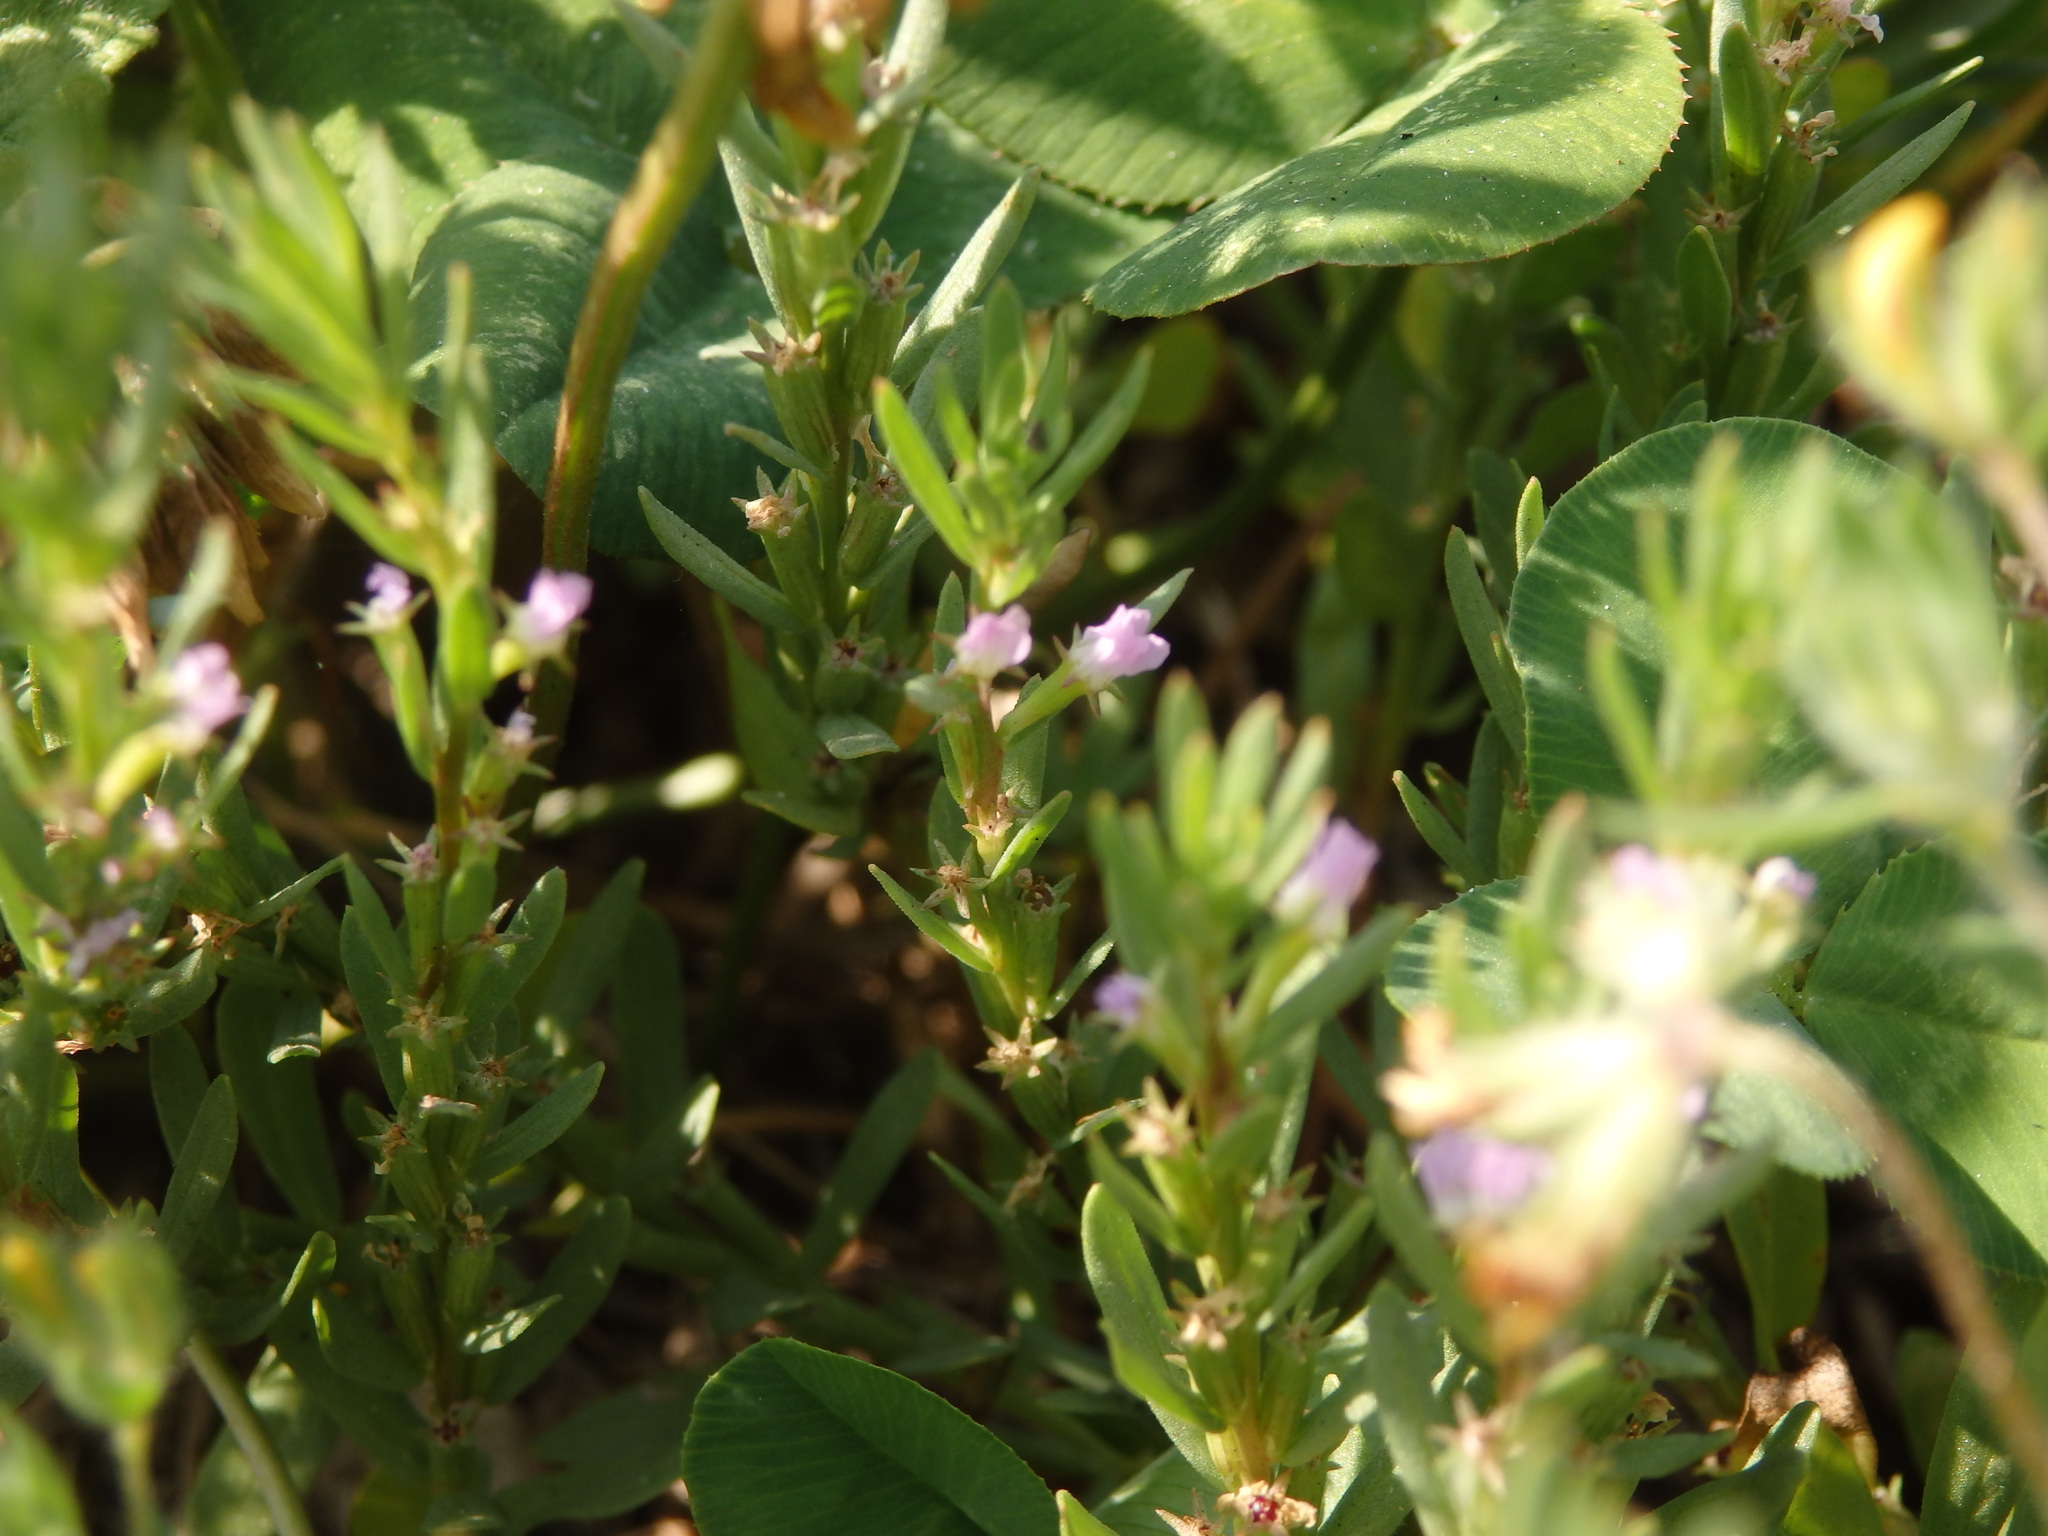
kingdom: Plantae
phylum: Tracheophyta
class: Magnoliopsida
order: Myrtales
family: Lythraceae
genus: Lythrum
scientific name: Lythrum hyssopifolia
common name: Grass-poly
